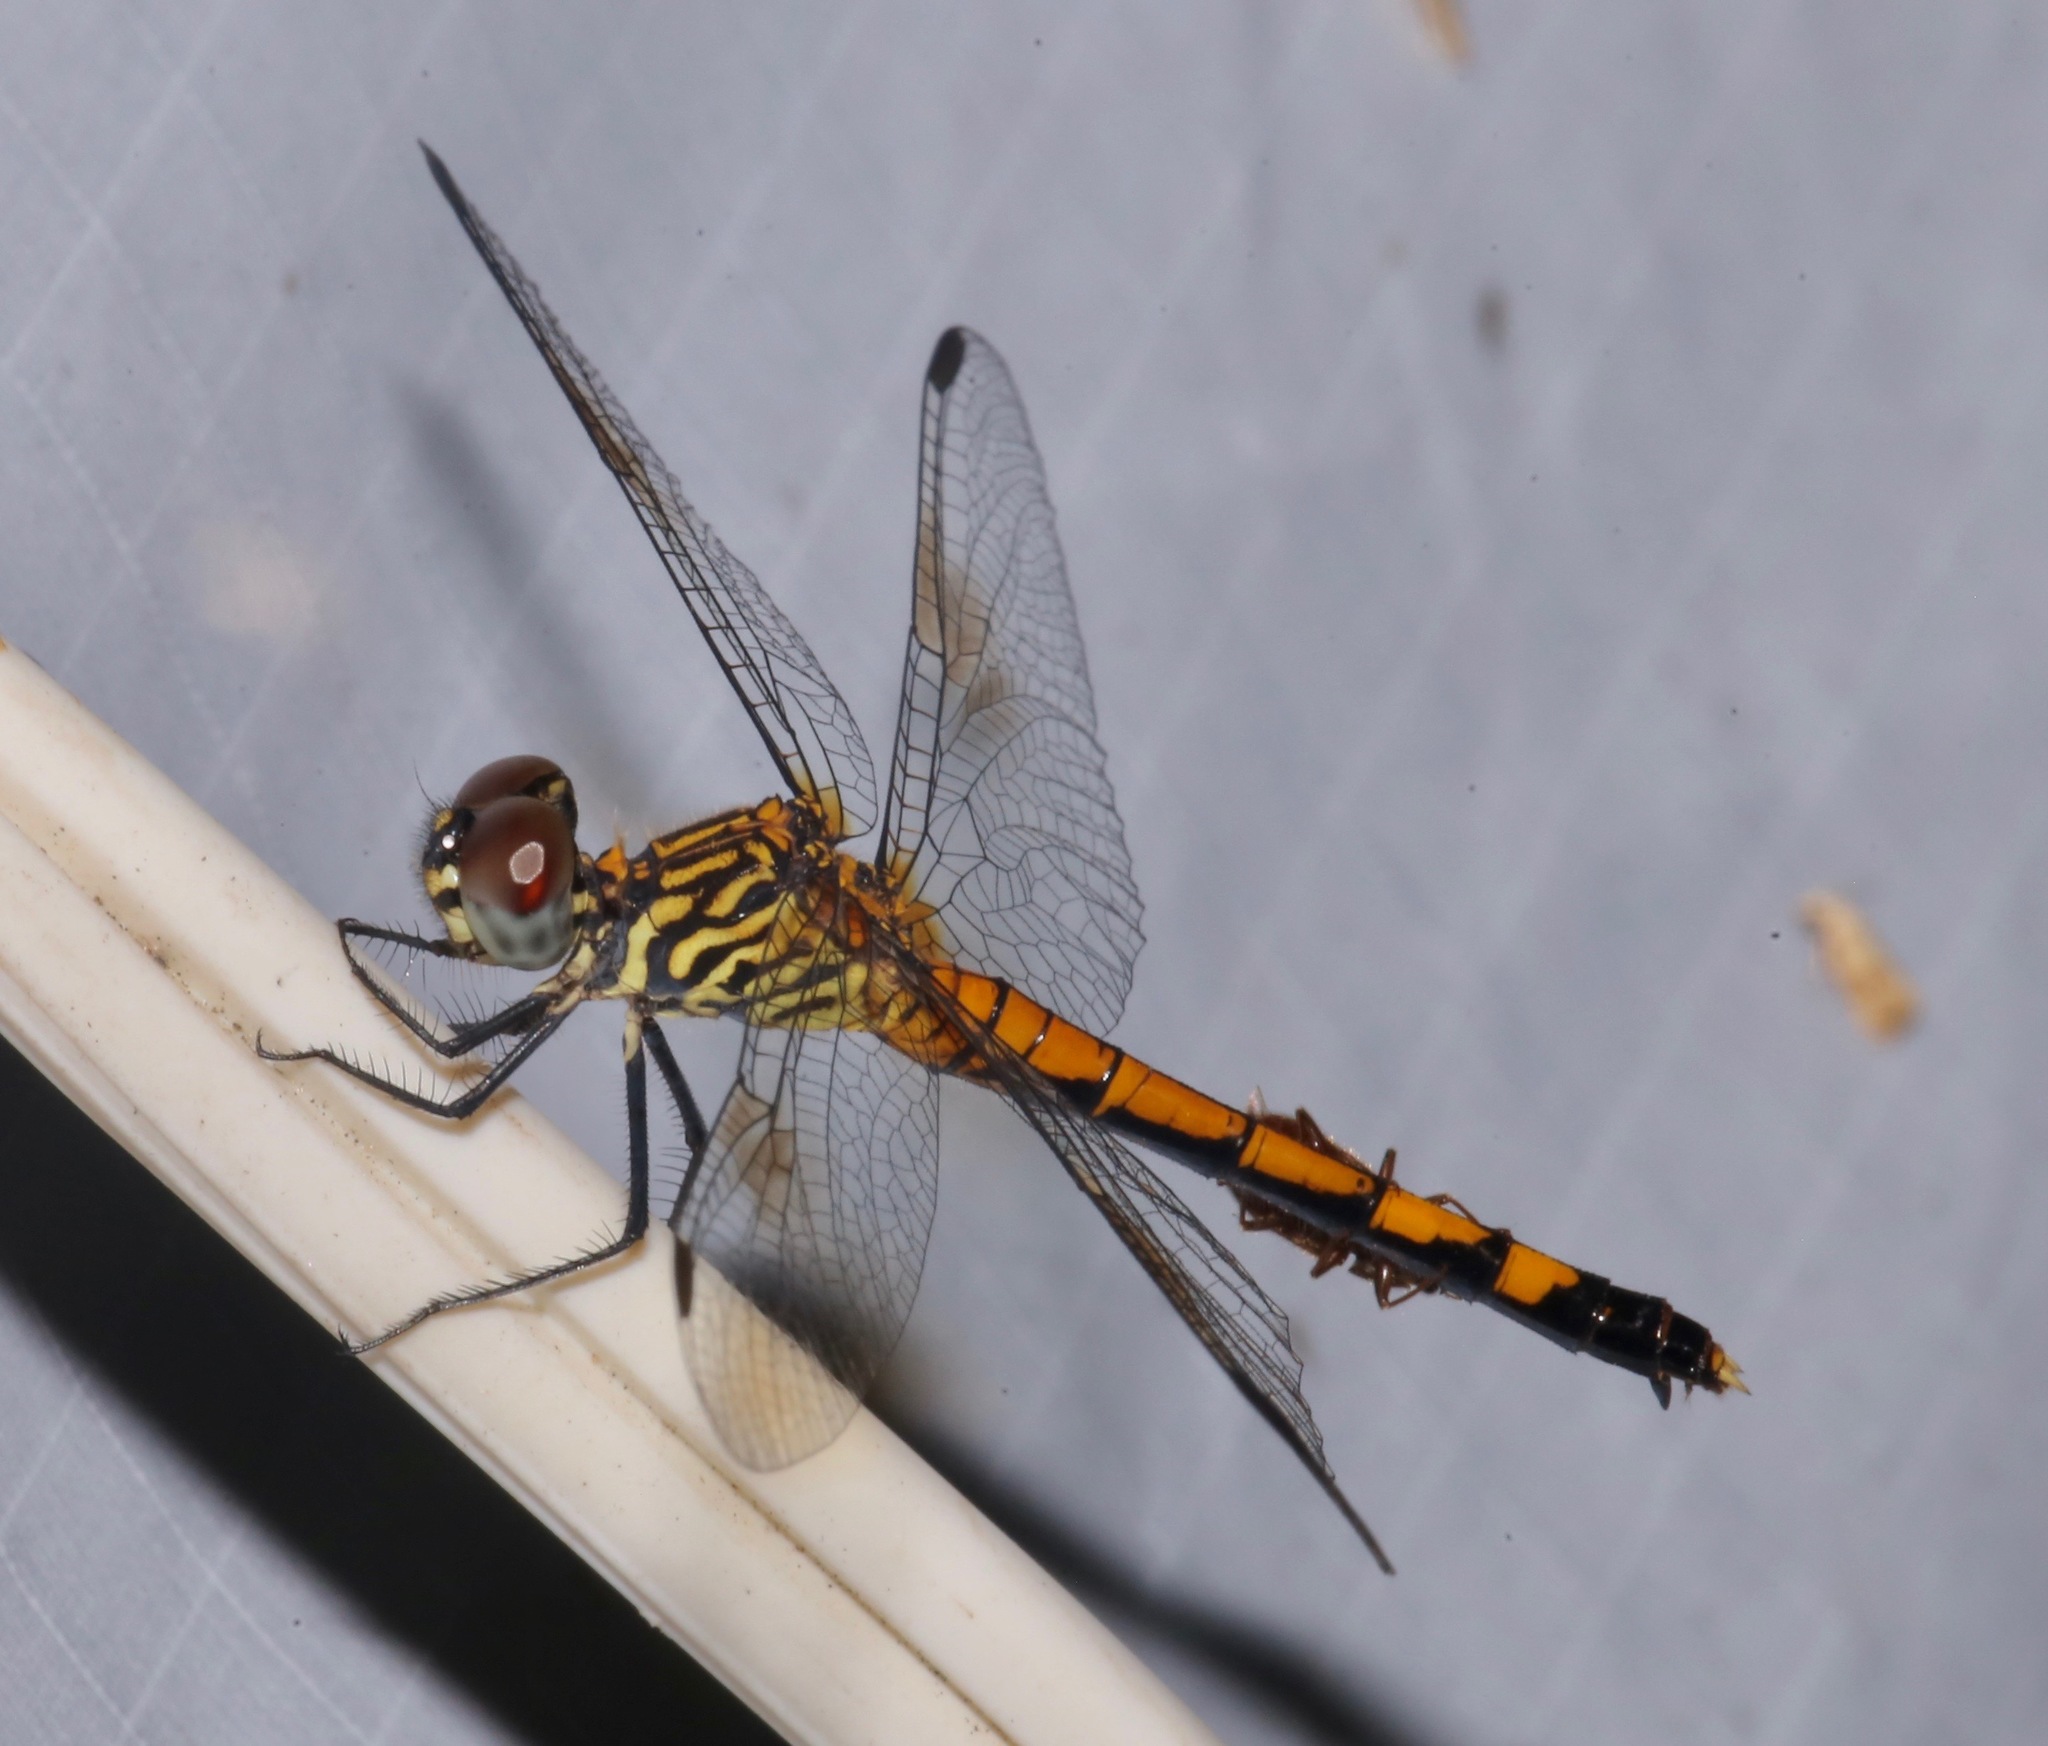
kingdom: Animalia
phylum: Arthropoda
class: Insecta
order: Odonata
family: Libellulidae
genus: Erythrodiplax
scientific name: Erythrodiplax berenice
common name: Seaside dragonlet
